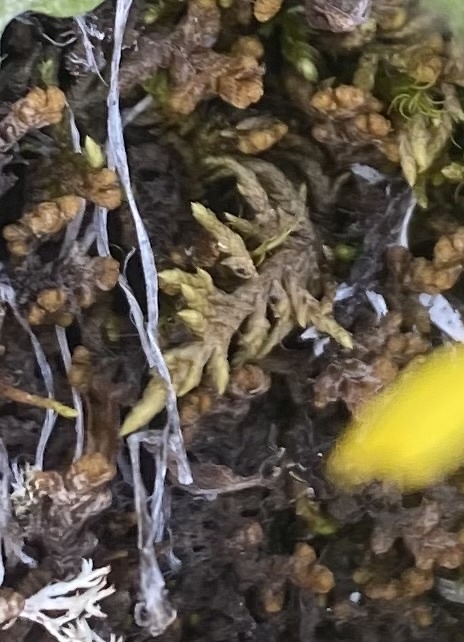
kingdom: Plantae
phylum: Marchantiophyta
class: Jungermanniopsida
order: Ptilidiales
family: Ptilidiaceae
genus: Ptilidium
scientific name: Ptilidium ciliare
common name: Ciliate fringewort
